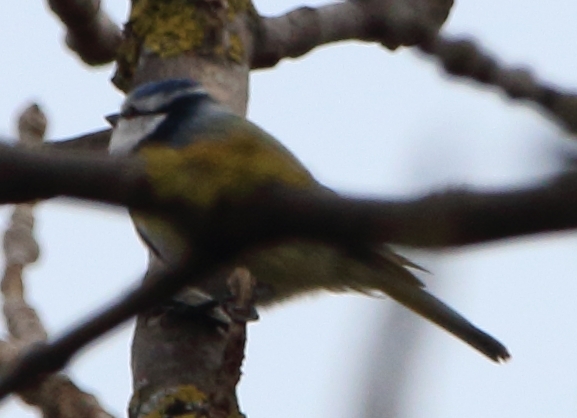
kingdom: Animalia
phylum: Chordata
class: Aves
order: Passeriformes
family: Paridae
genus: Cyanistes
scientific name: Cyanistes caeruleus
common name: Eurasian blue tit
